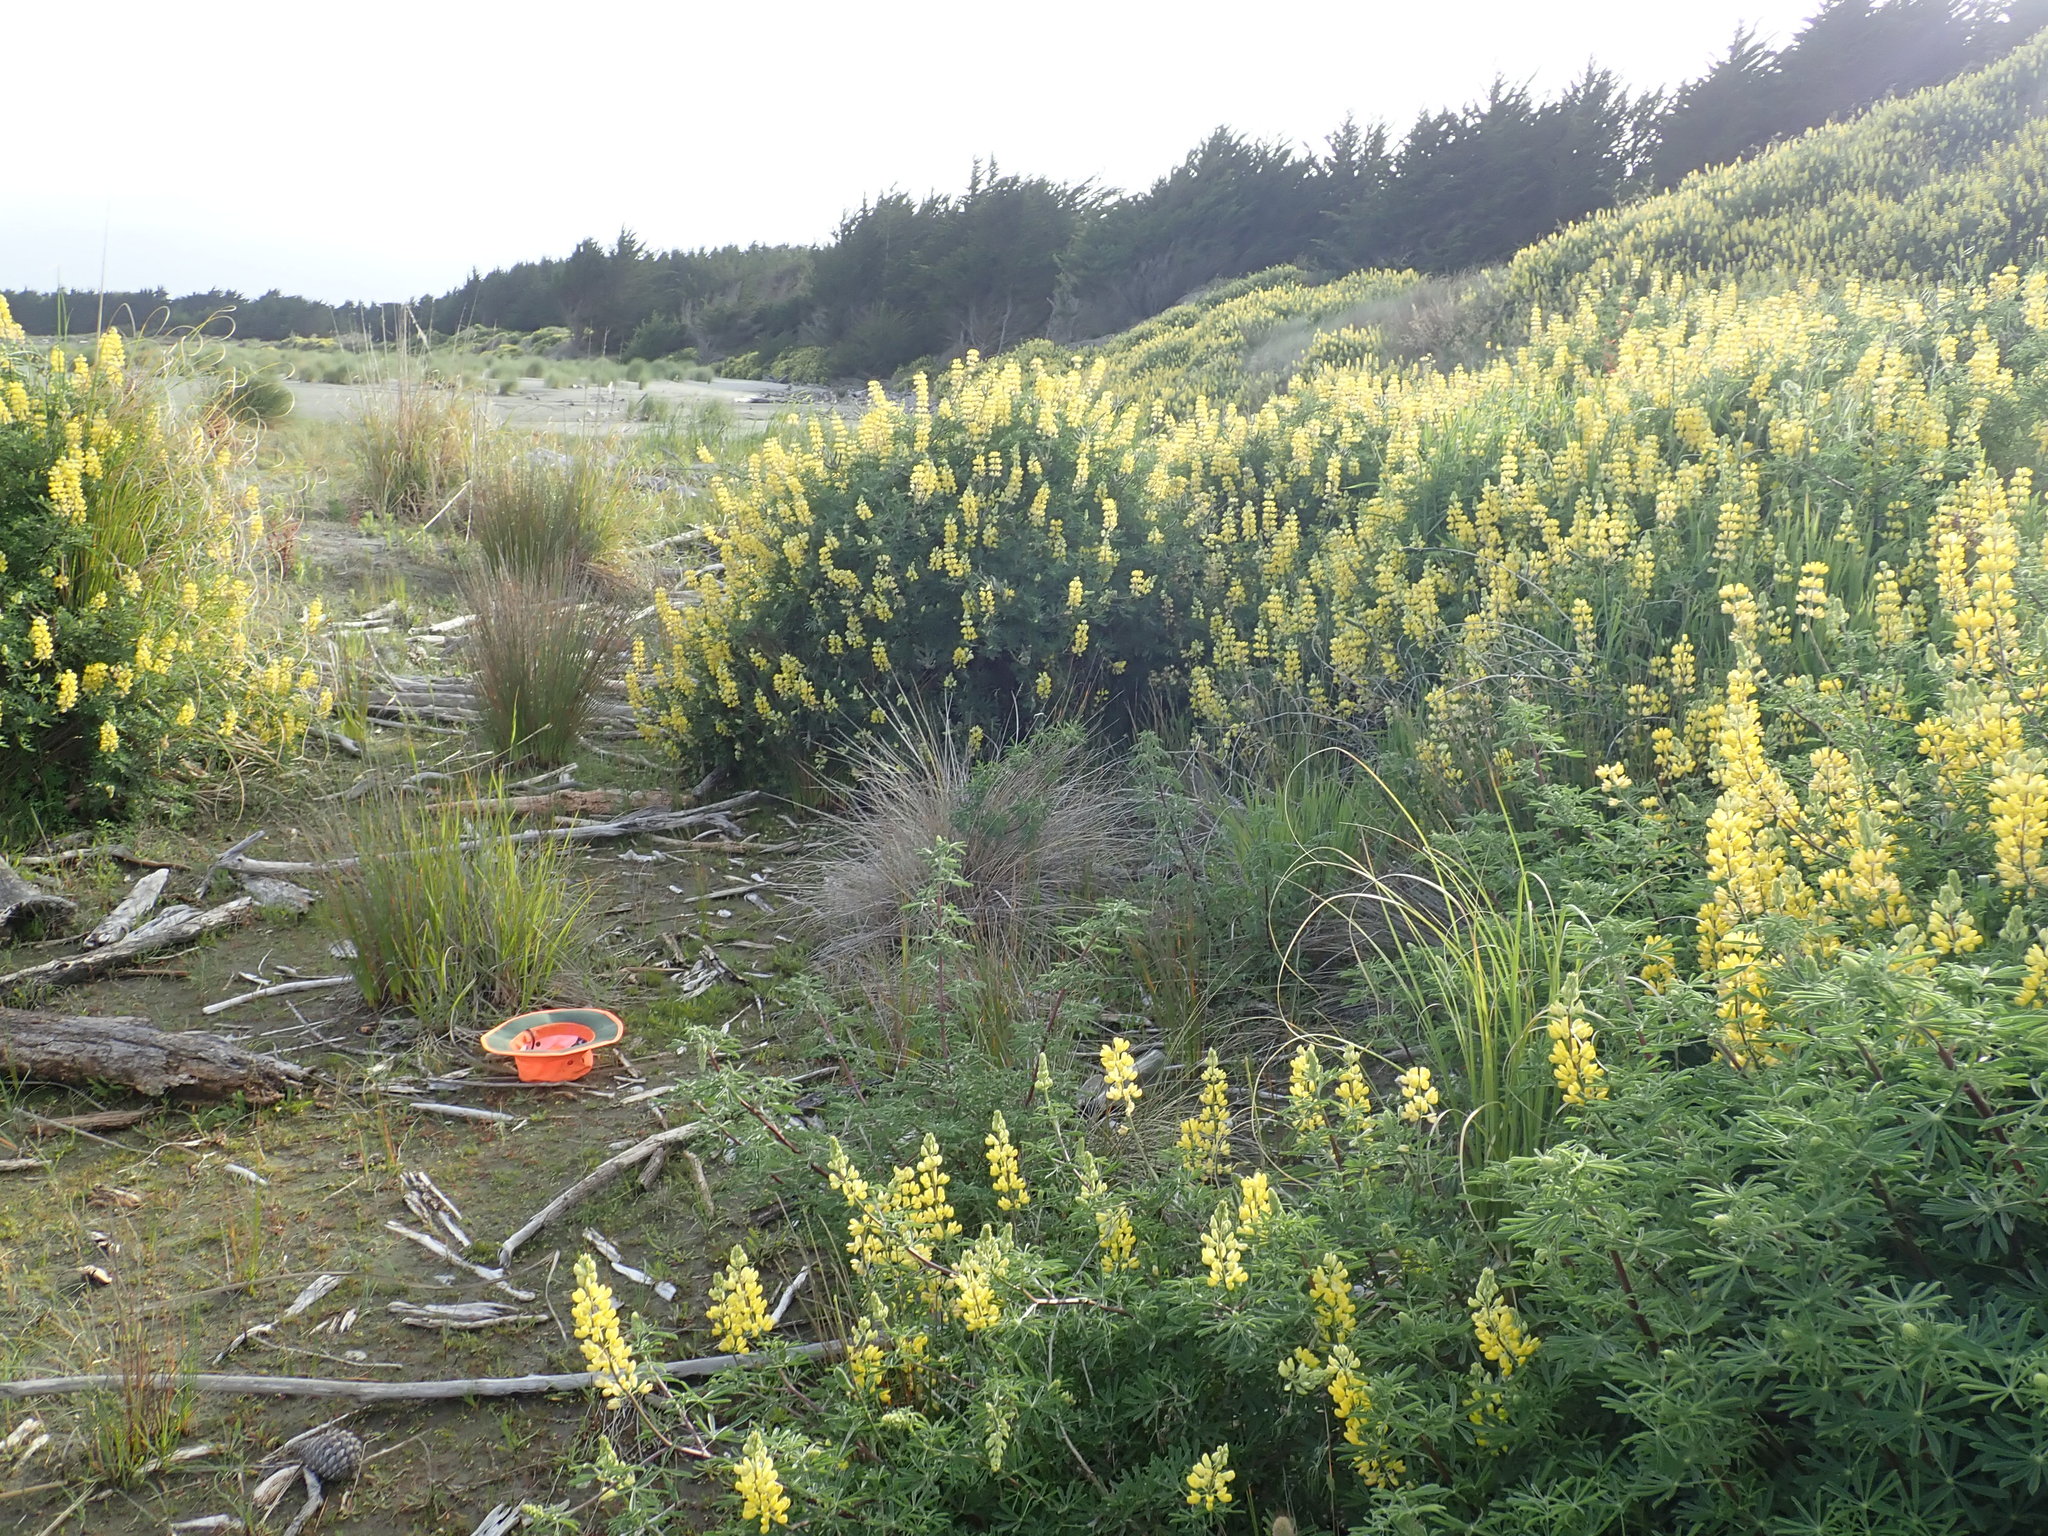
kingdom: Plantae
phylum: Tracheophyta
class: Magnoliopsida
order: Ranunculales
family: Ranunculaceae
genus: Ranunculus
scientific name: Ranunculus acaulis
